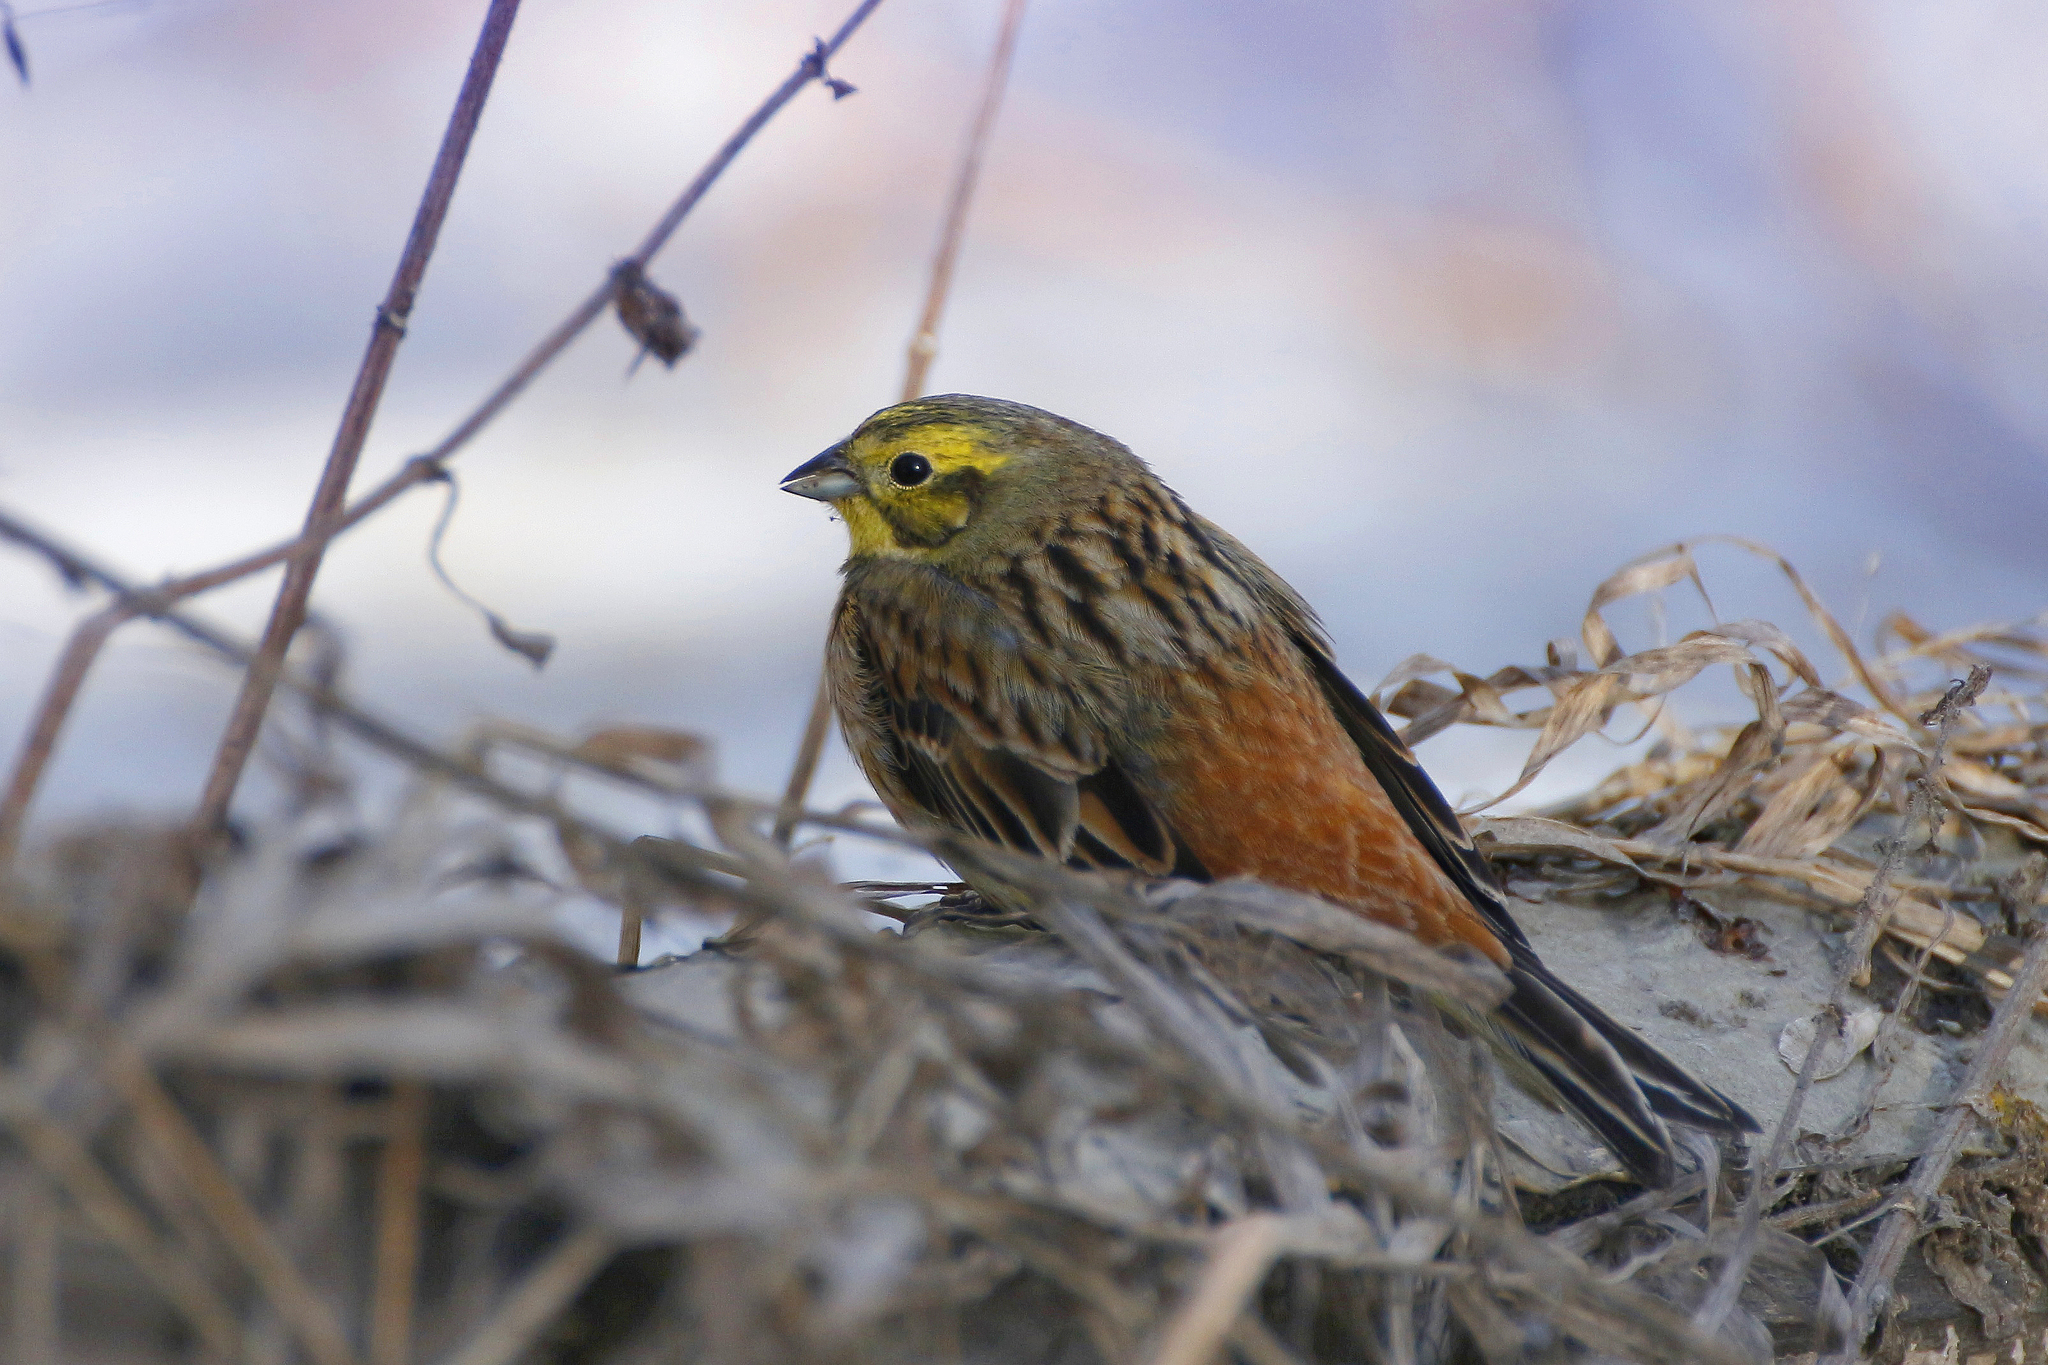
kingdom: Animalia
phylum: Chordata
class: Aves
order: Passeriformes
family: Emberizidae
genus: Emberiza
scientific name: Emberiza citrinella
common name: Yellowhammer
